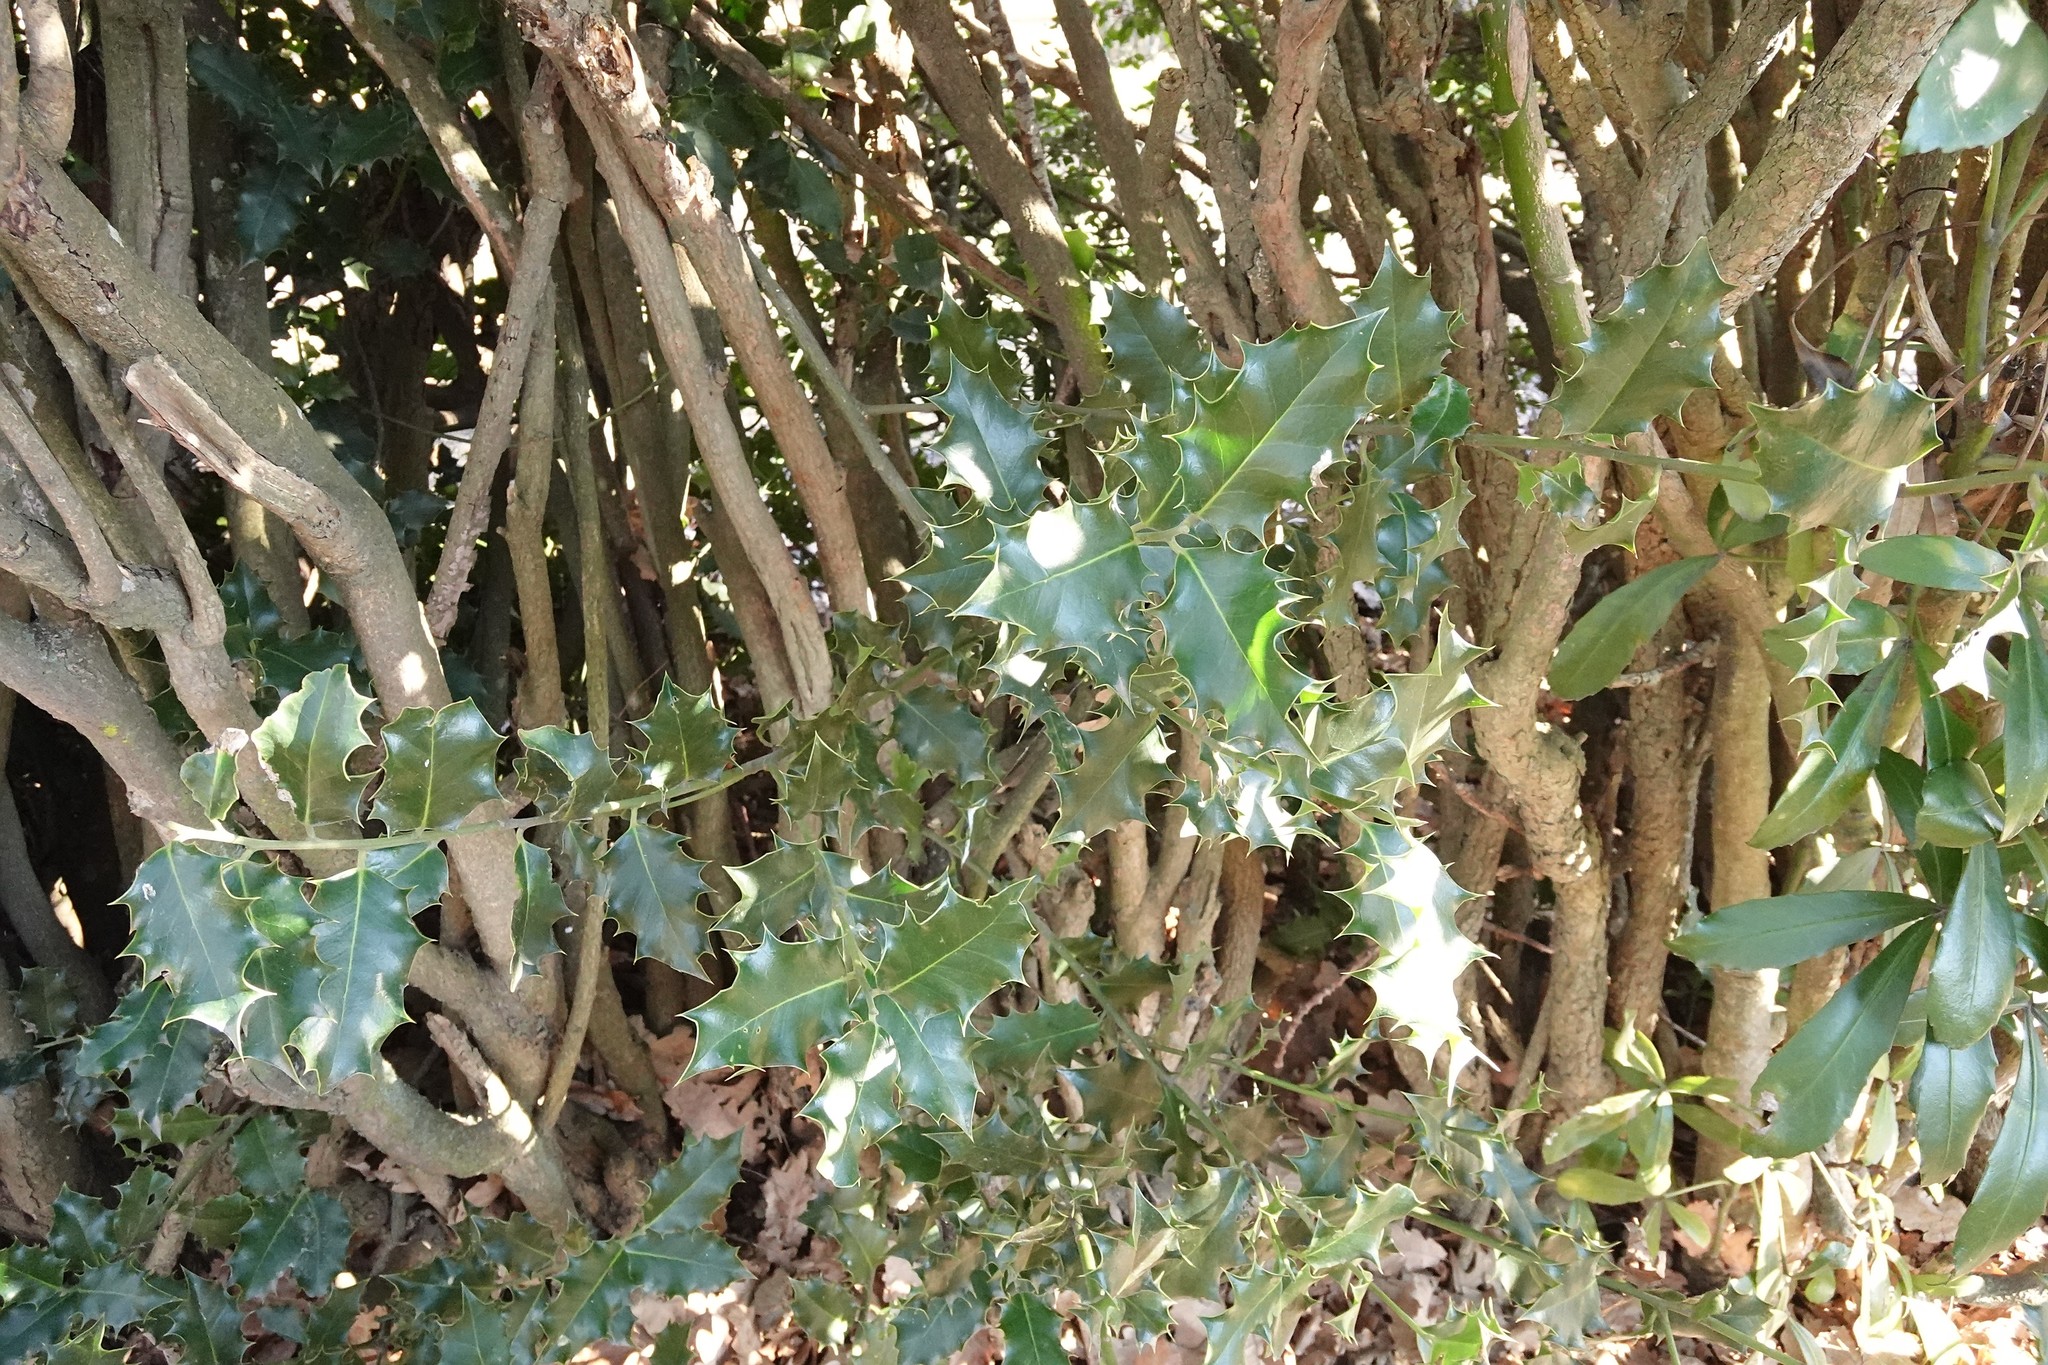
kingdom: Plantae
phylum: Tracheophyta
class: Magnoliopsida
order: Aquifoliales
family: Aquifoliaceae
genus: Ilex
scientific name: Ilex aquifolium
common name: English holly
